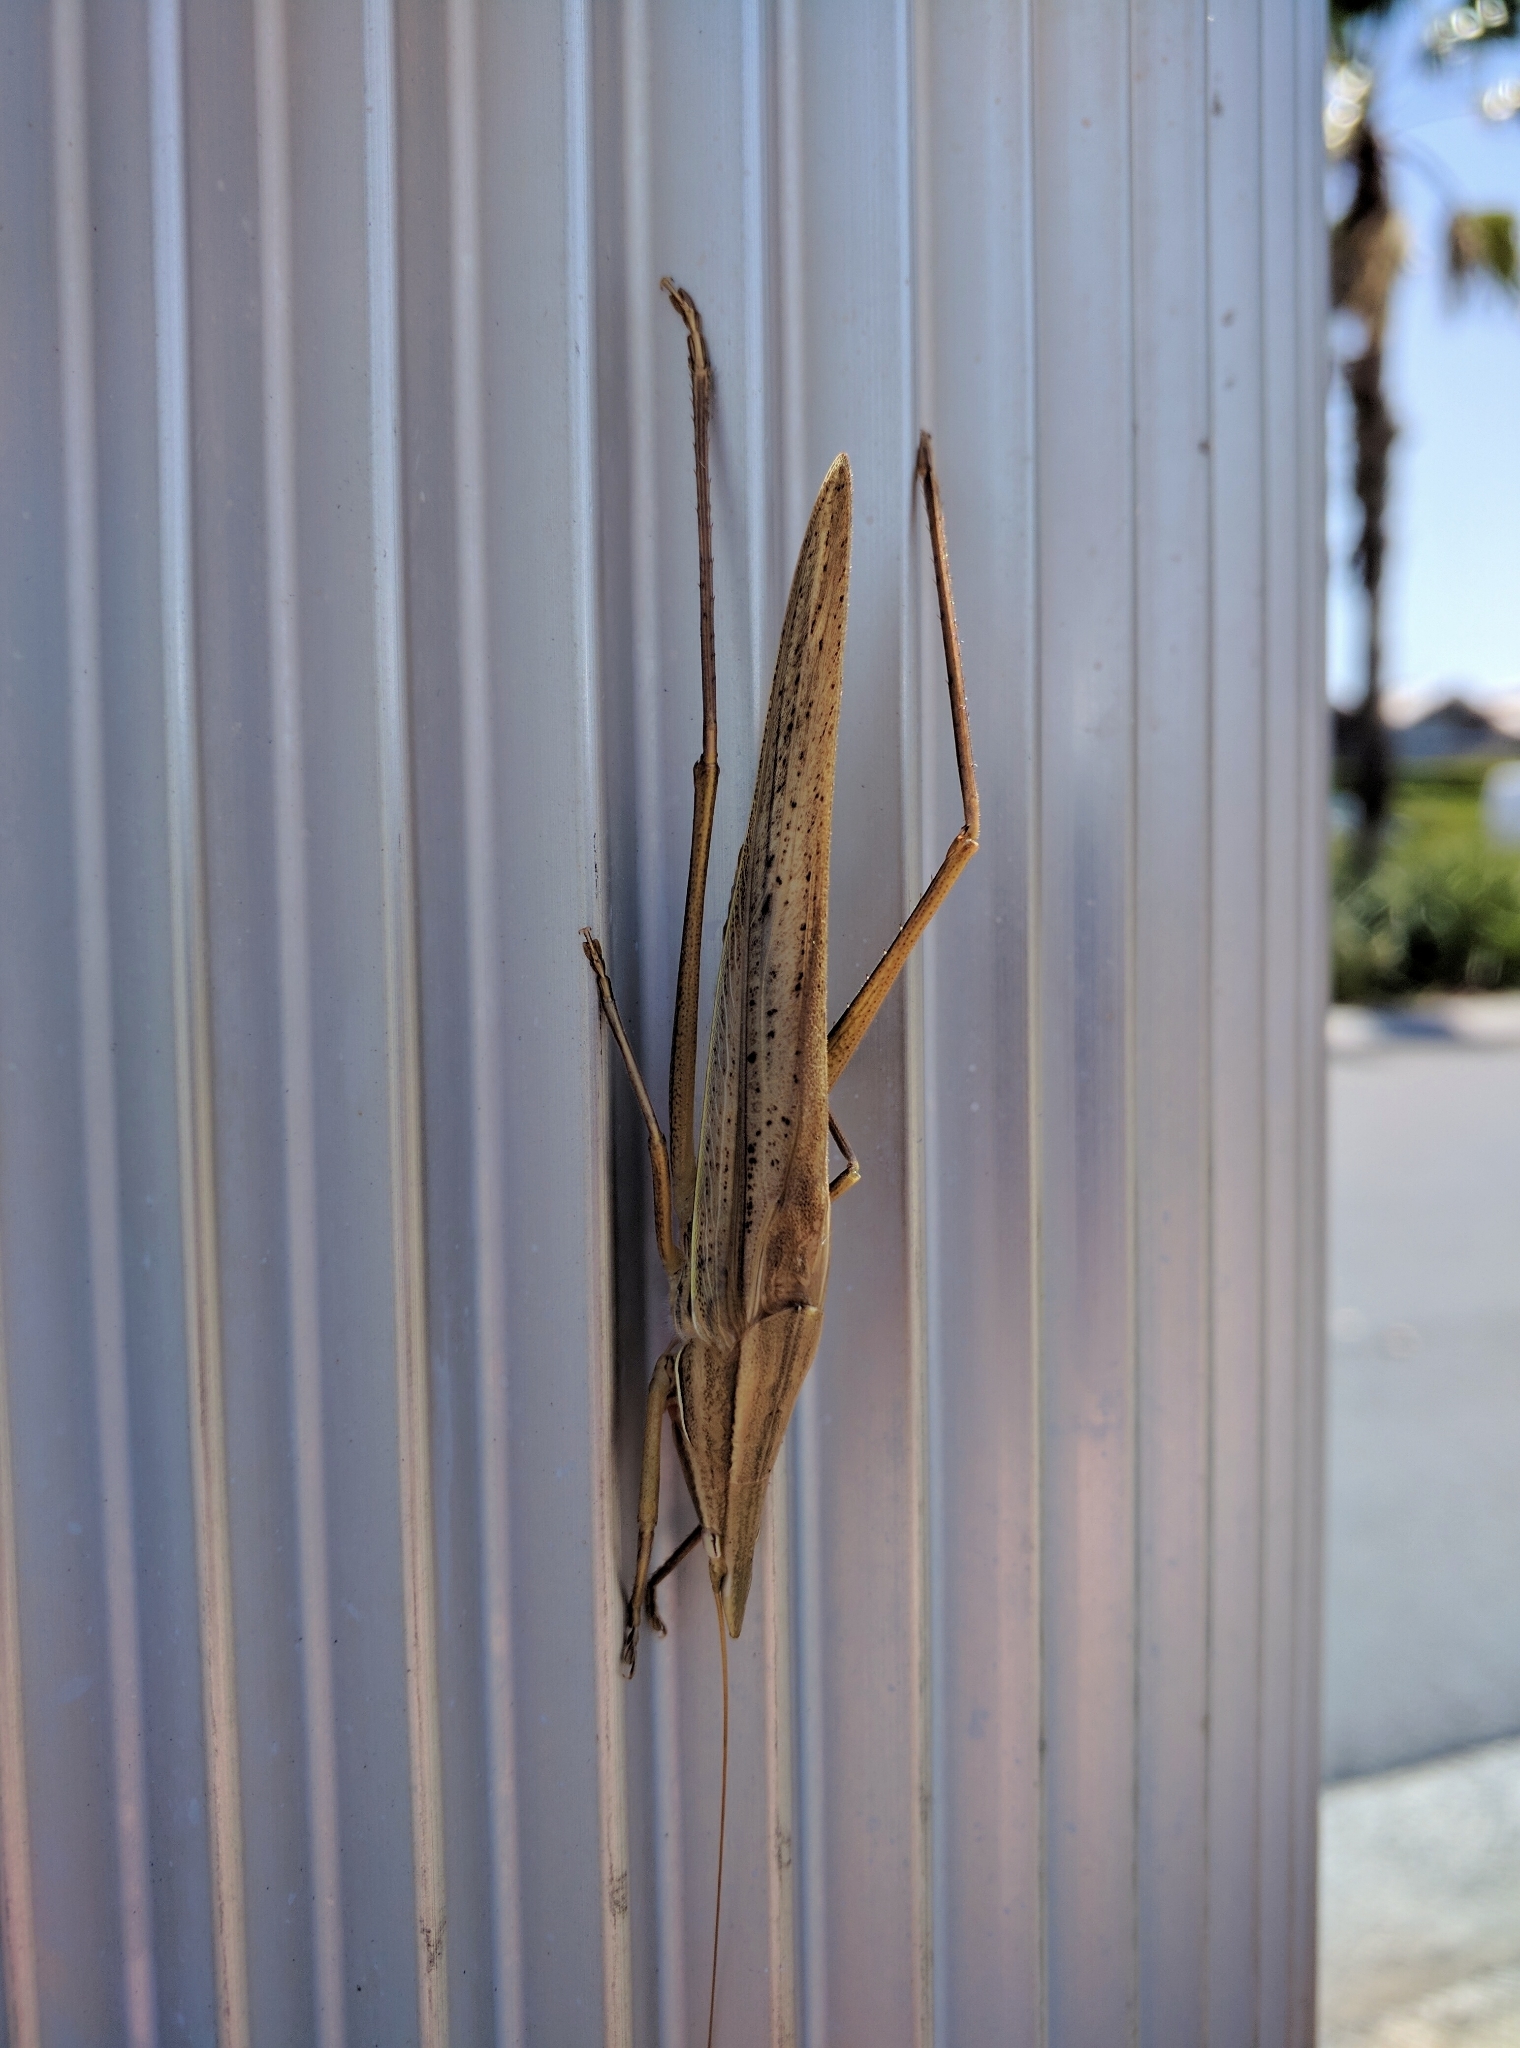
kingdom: Animalia
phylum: Arthropoda
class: Insecta
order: Orthoptera
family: Tettigoniidae
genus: Pseudorhynchus
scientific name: Pseudorhynchus lessonii
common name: Lesson's mimicking snout nose
